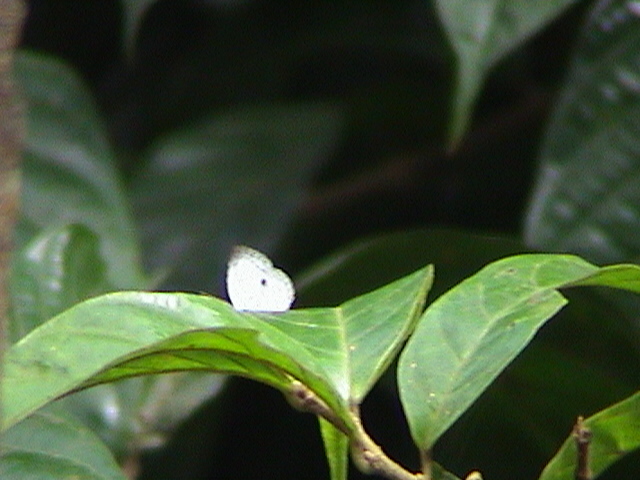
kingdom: Animalia
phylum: Arthropoda
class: Insecta
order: Lepidoptera
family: Lycaenidae
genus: Neopithecops
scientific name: Neopithecops zalmora
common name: Quaker
